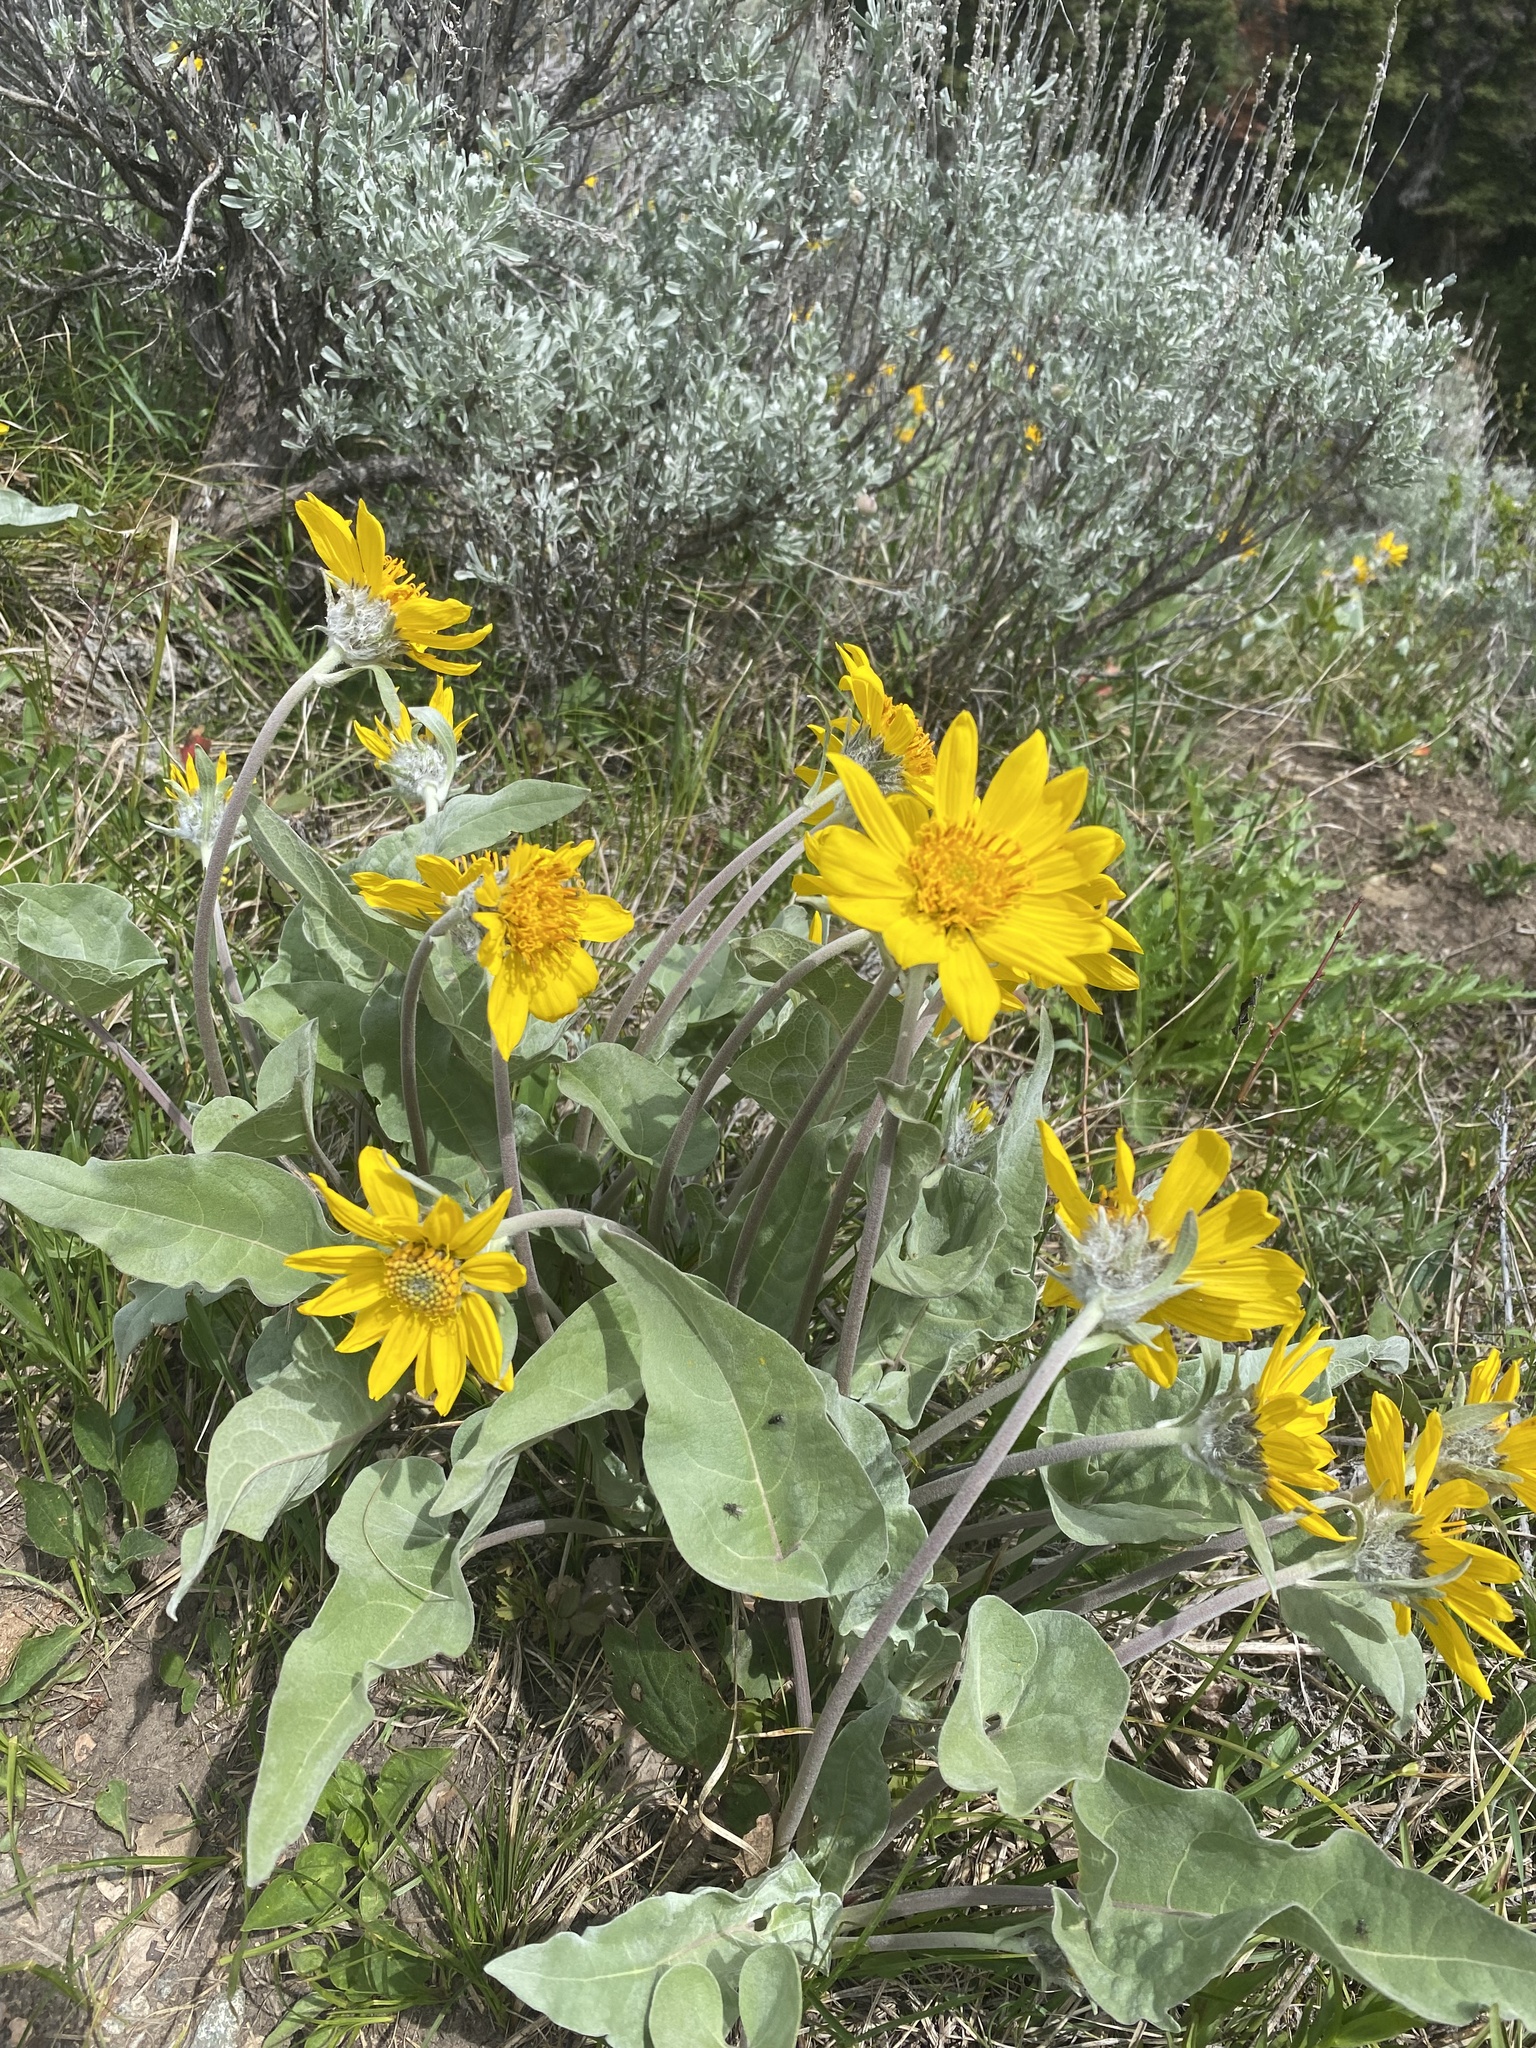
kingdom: Plantae
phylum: Tracheophyta
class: Magnoliopsida
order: Asterales
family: Asteraceae
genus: Wyethia
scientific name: Wyethia sagittata
